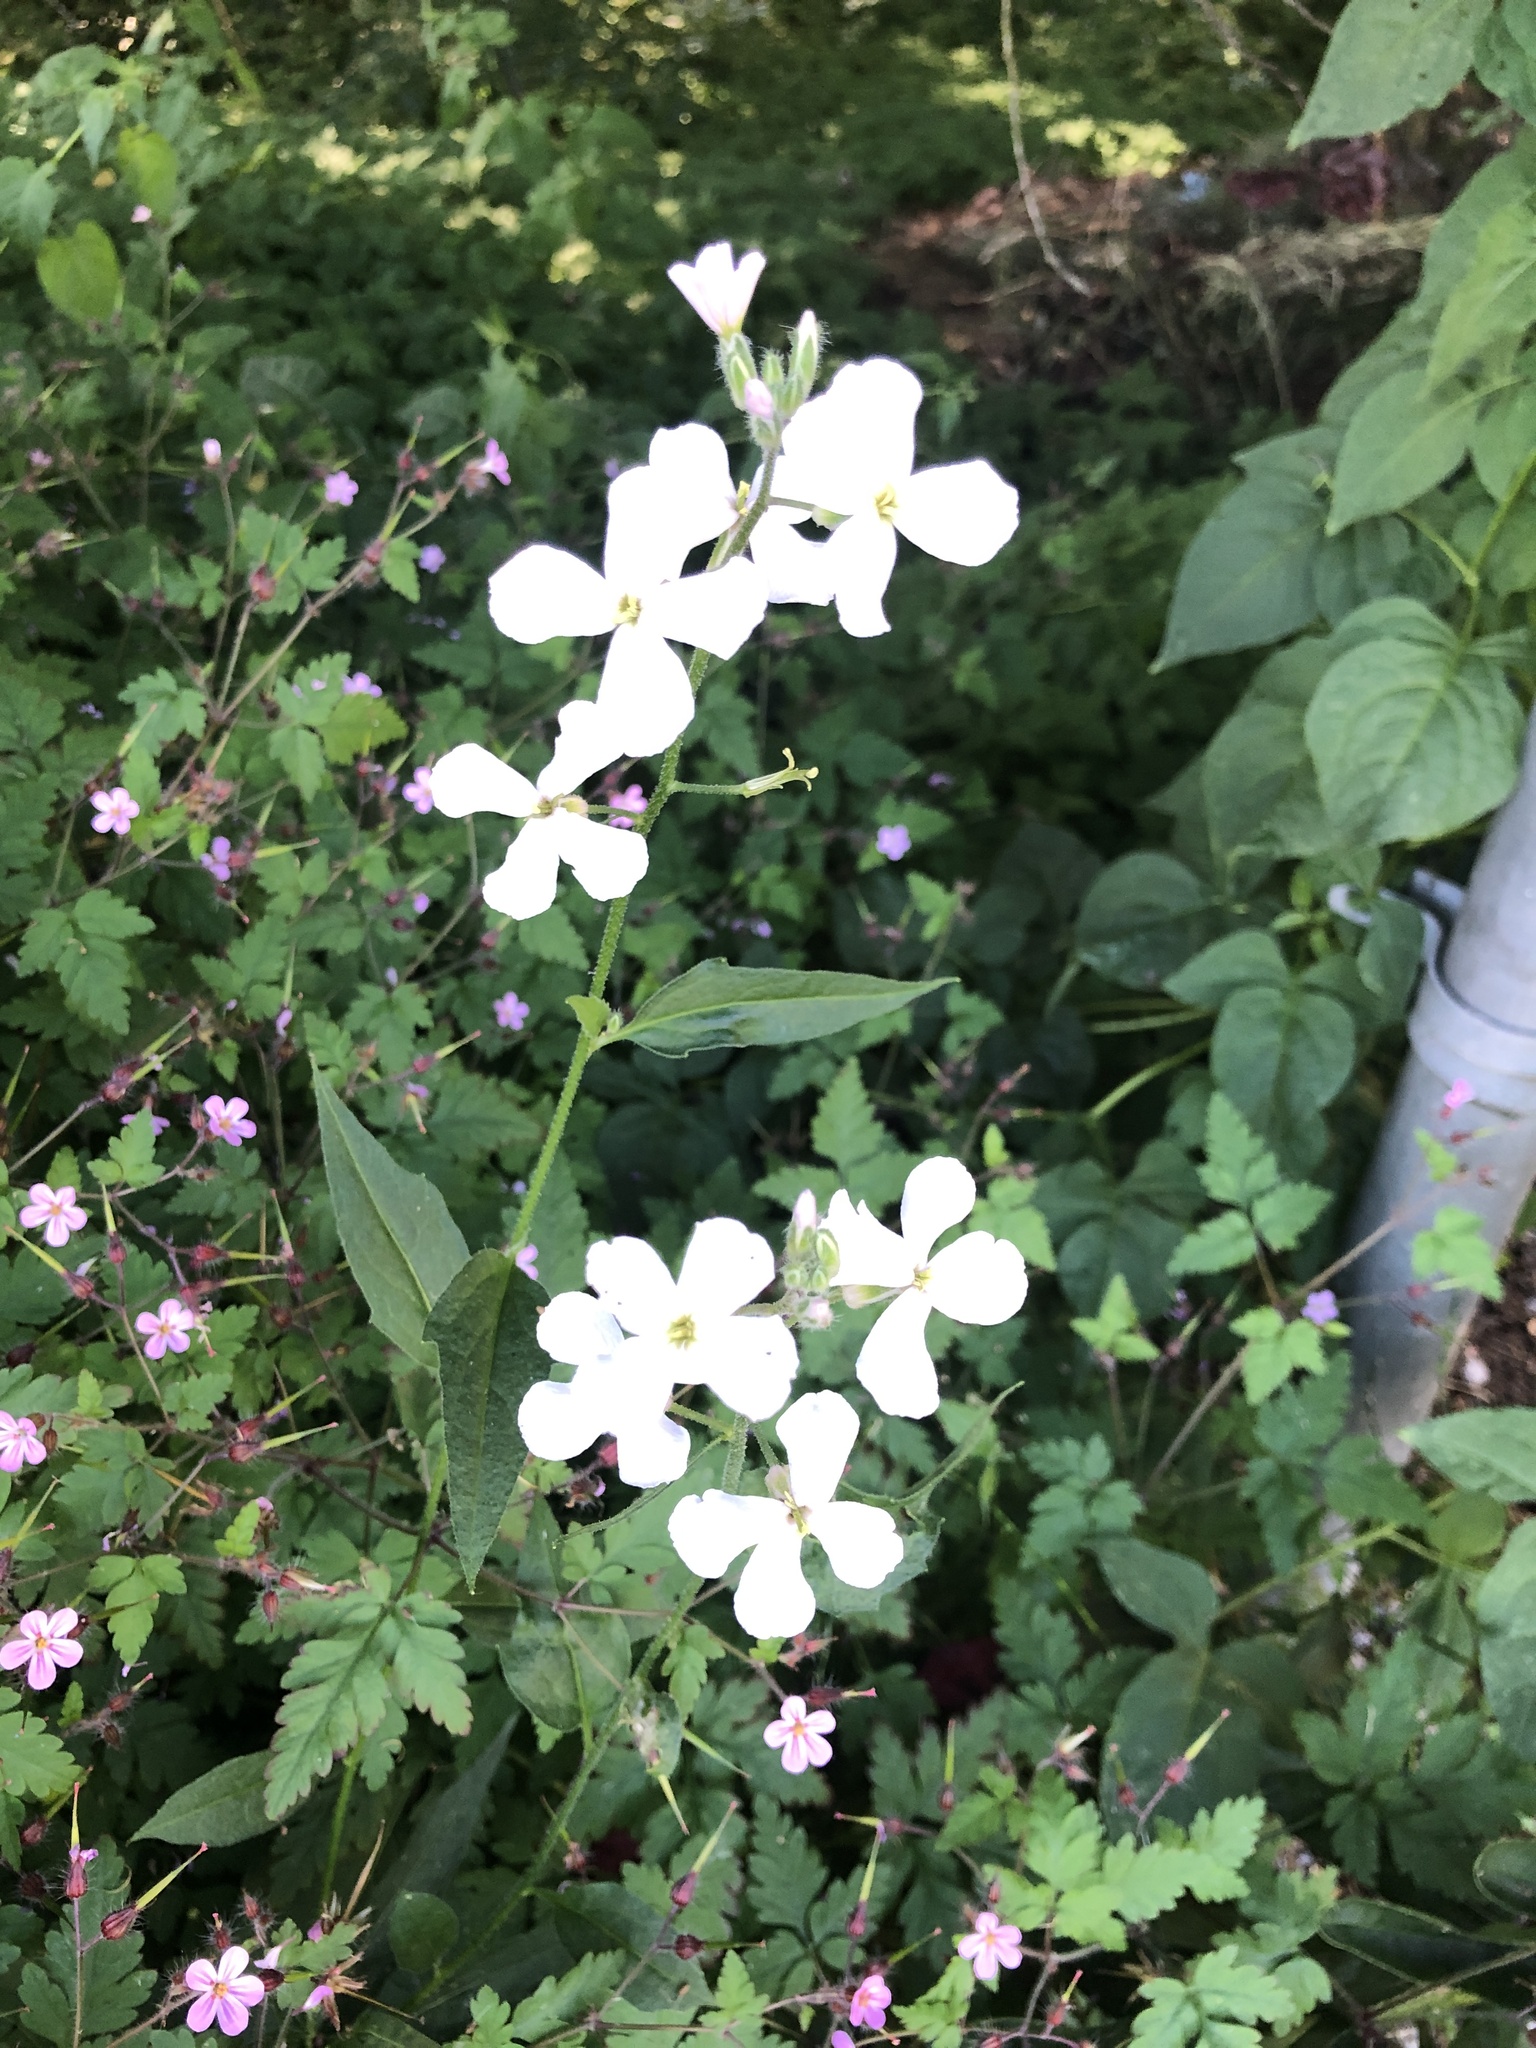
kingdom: Plantae
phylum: Tracheophyta
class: Magnoliopsida
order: Brassicales
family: Brassicaceae
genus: Hesperis
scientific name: Hesperis matronalis
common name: Dame's-violet
